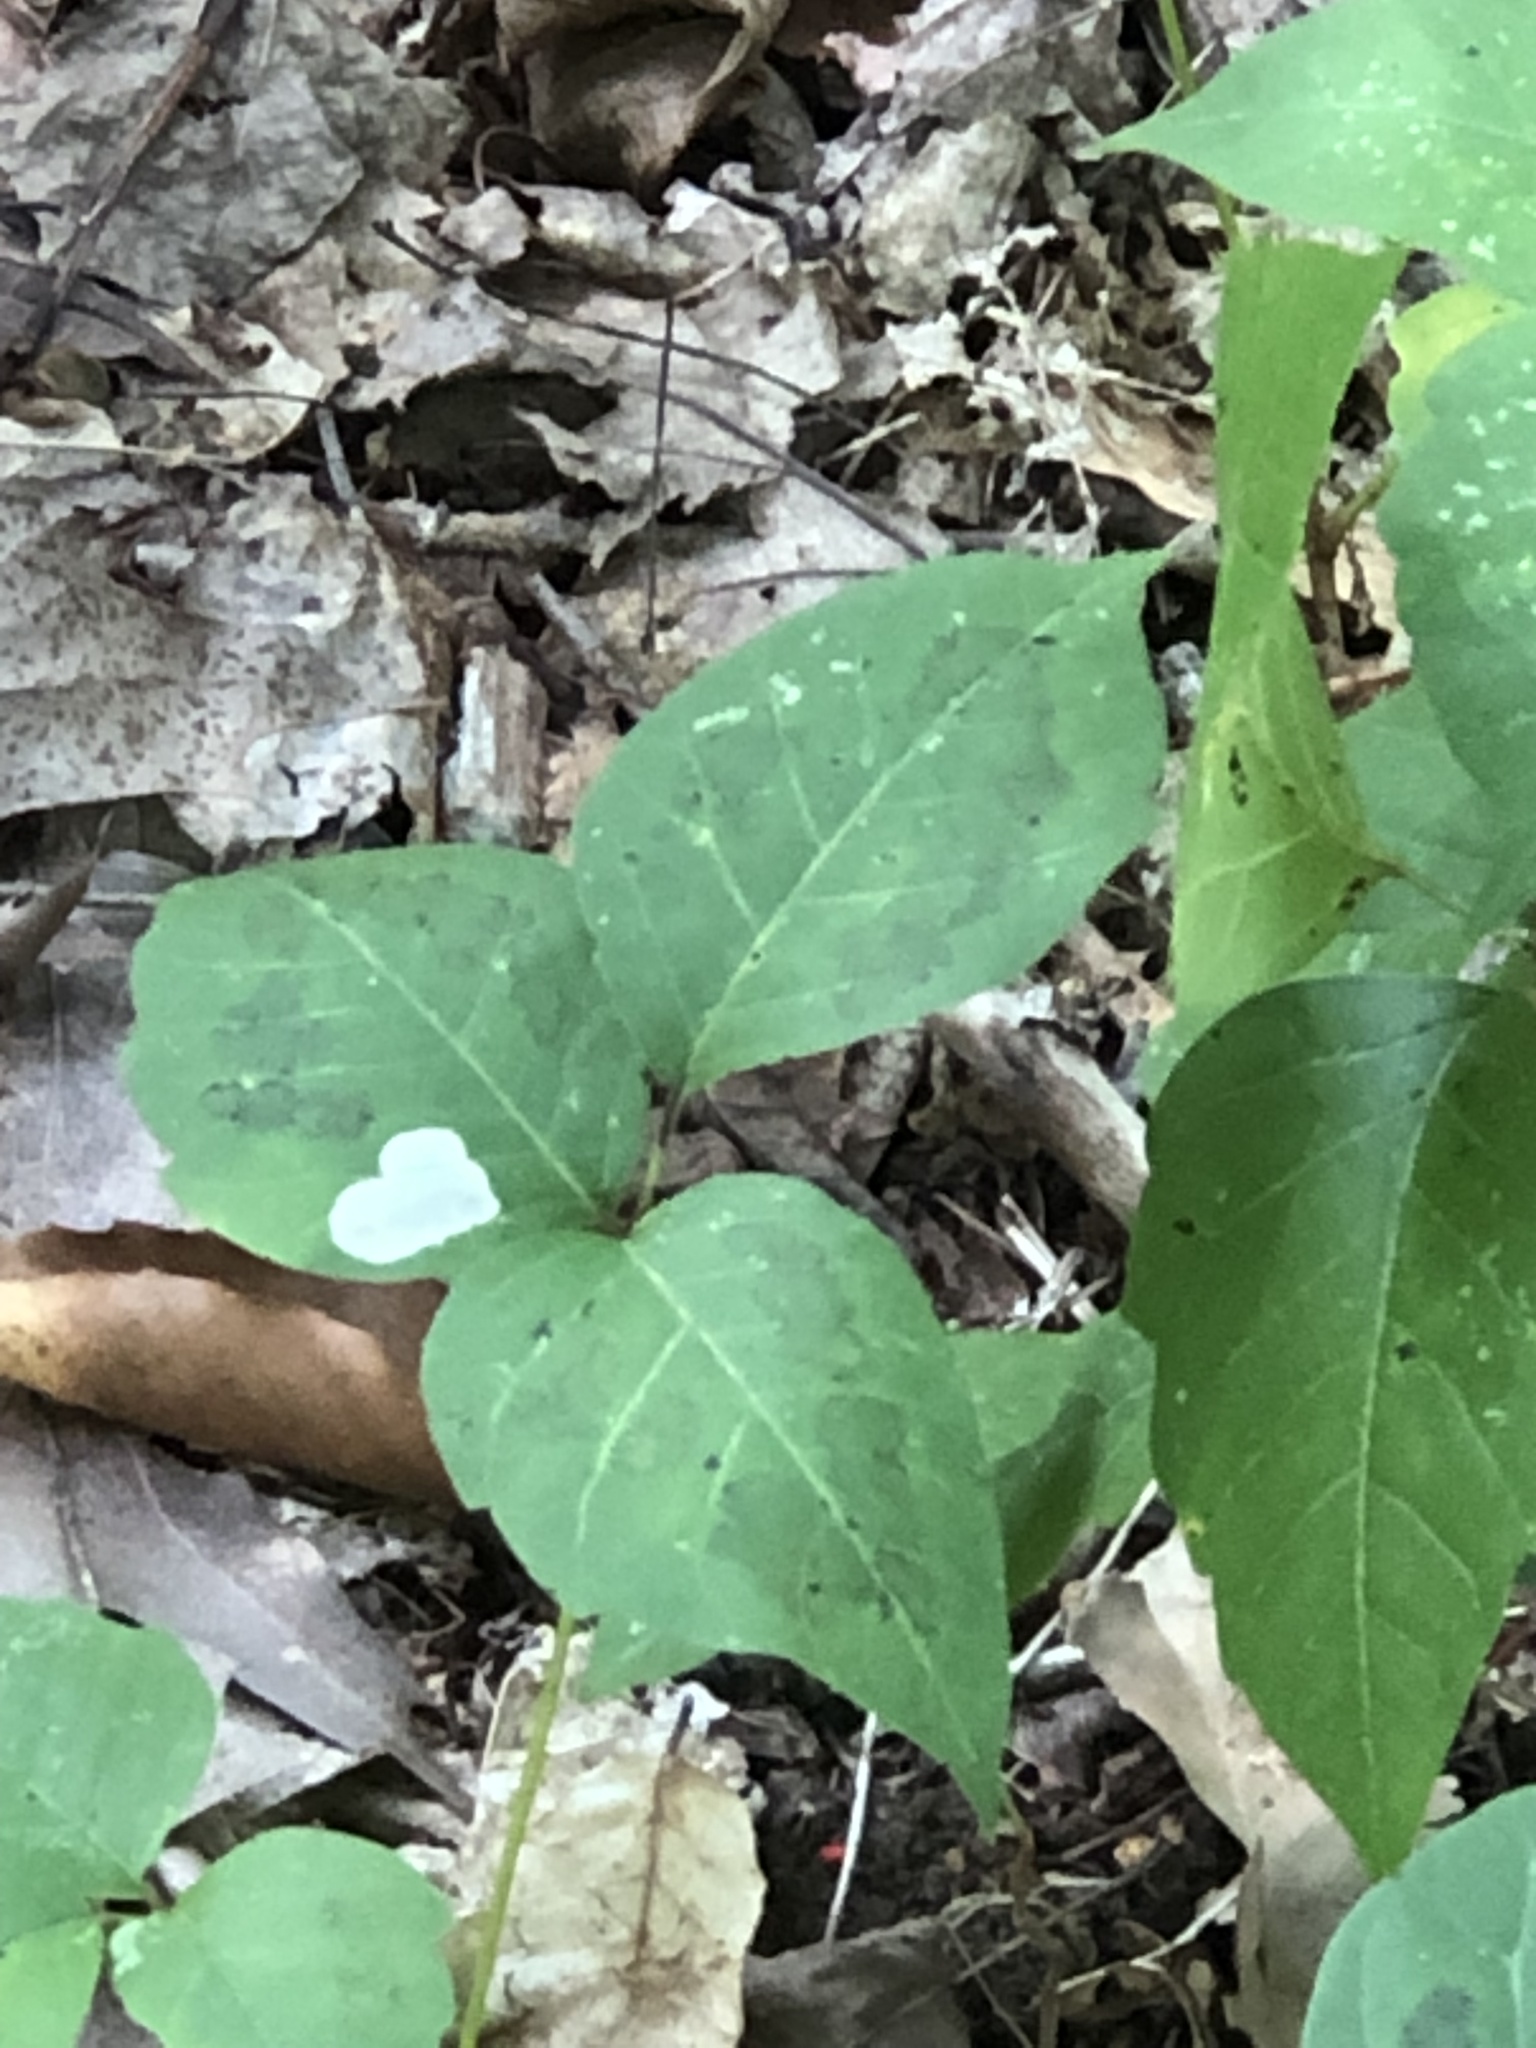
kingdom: Animalia
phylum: Arthropoda
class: Insecta
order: Lepidoptera
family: Gracillariidae
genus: Cameraria
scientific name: Cameraria guttifinitella
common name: Poison ivy leaf-miner moth
